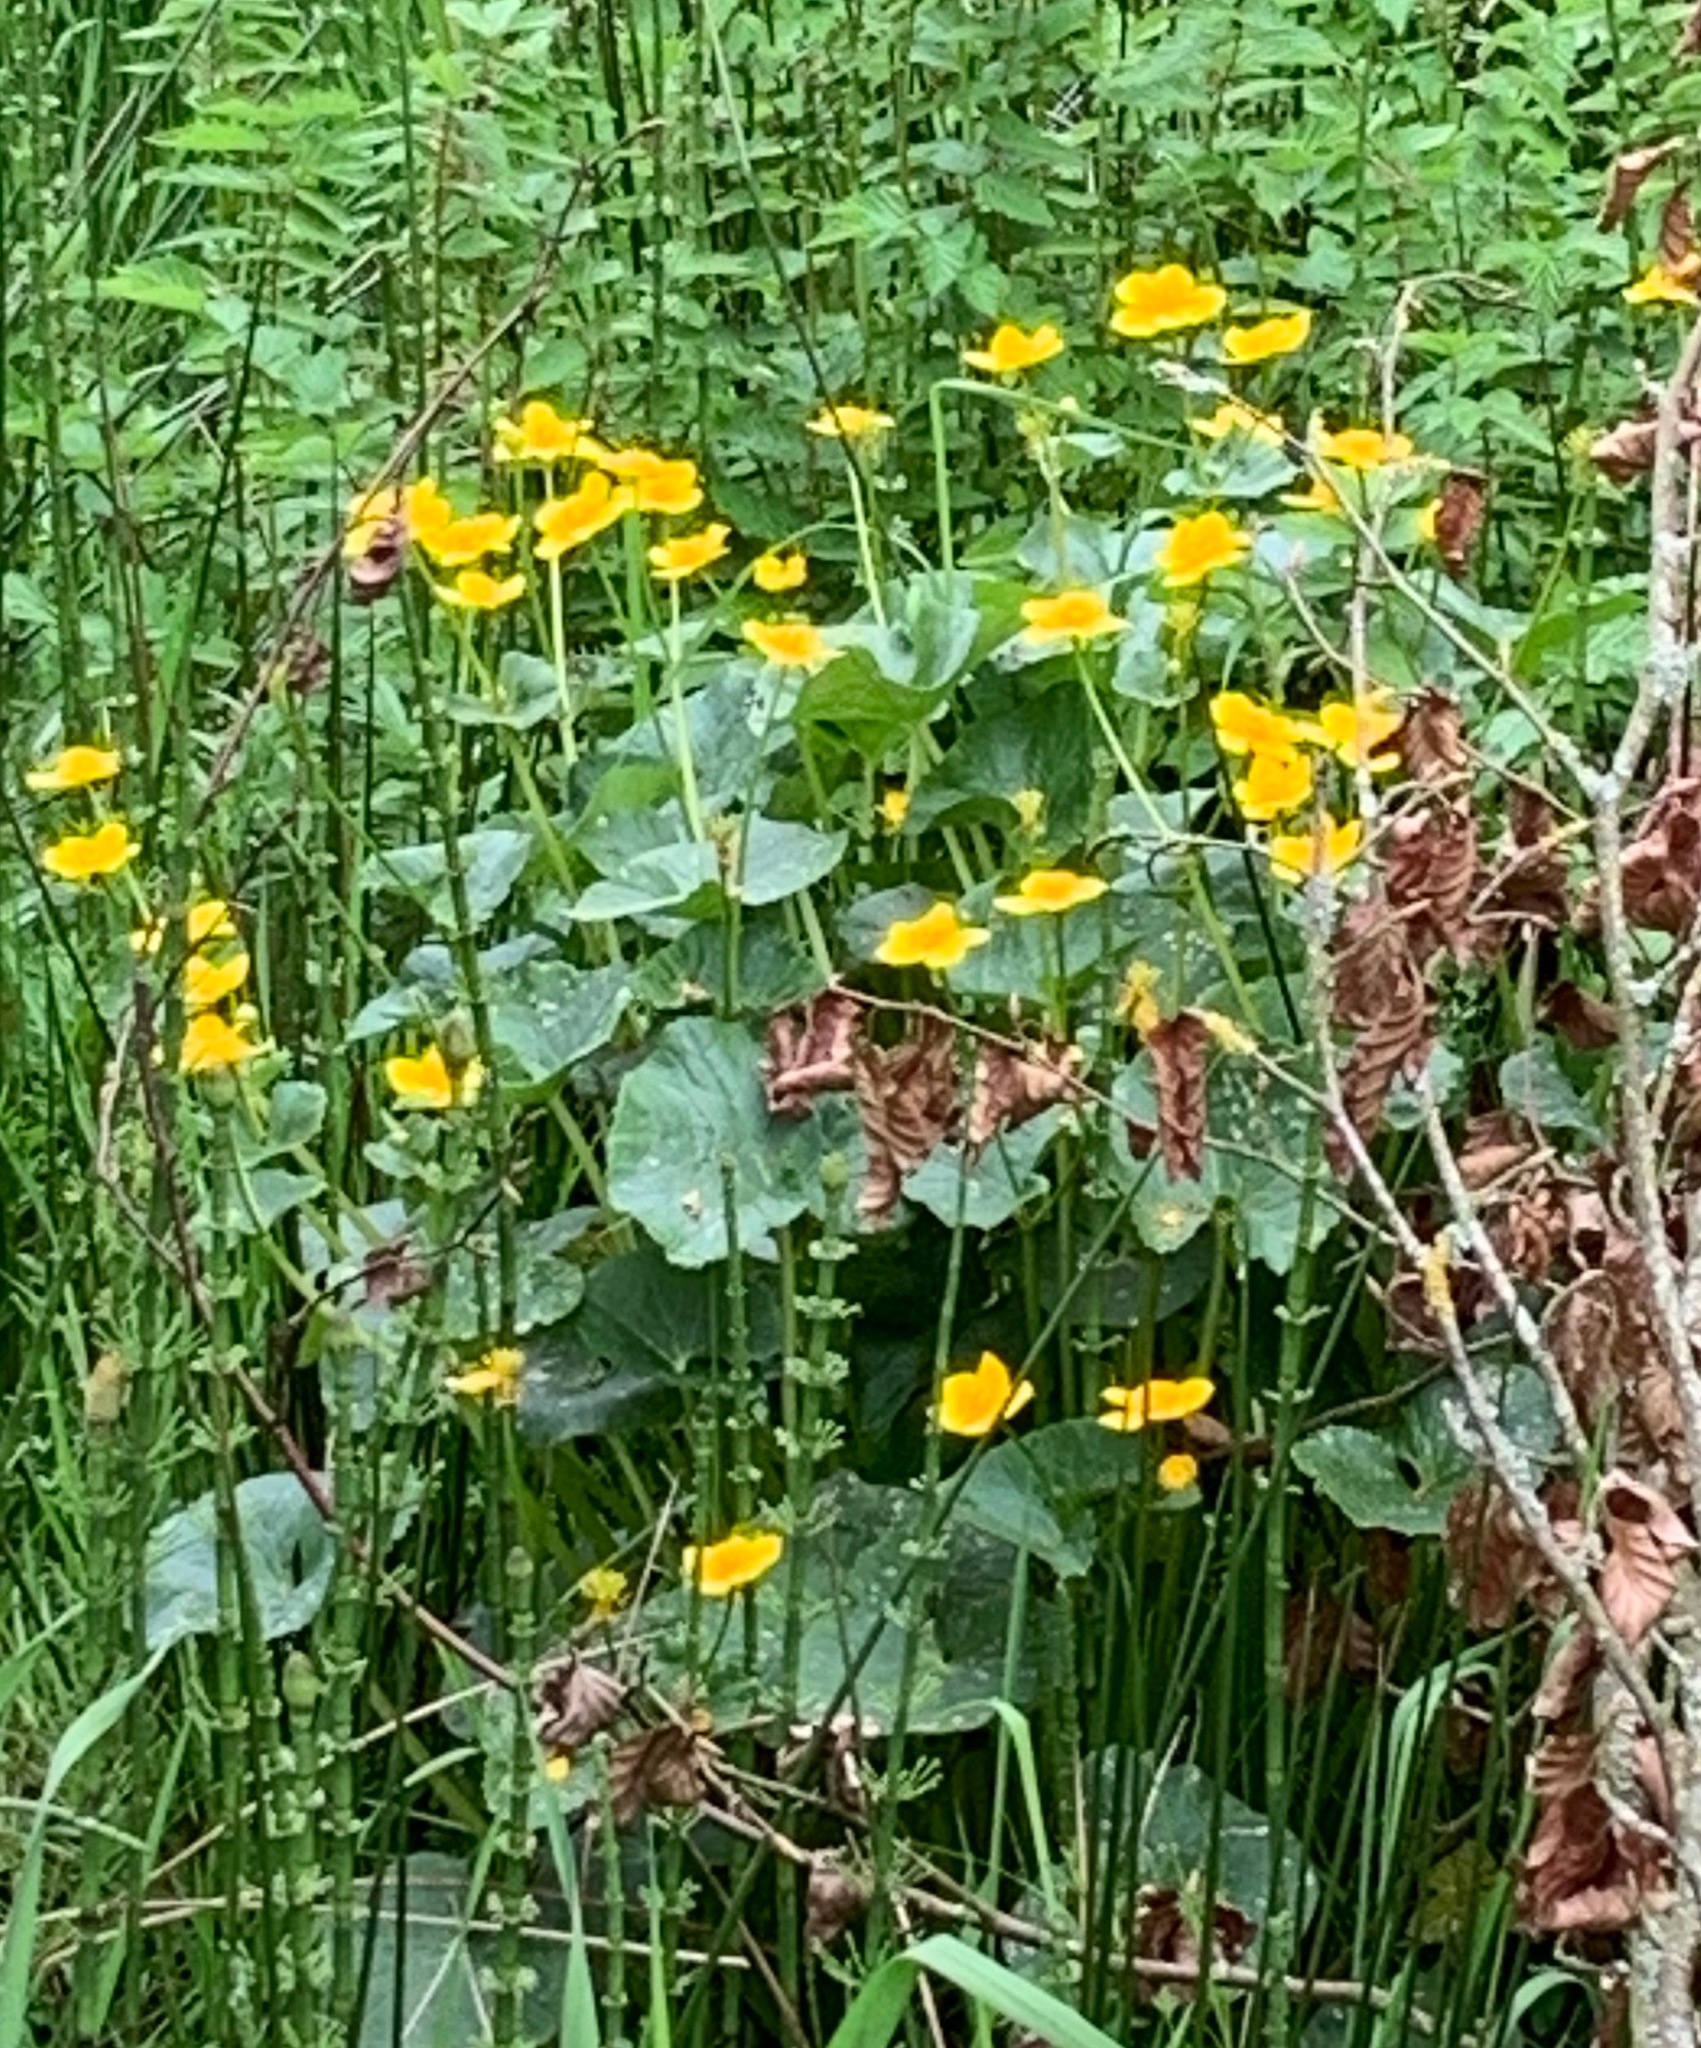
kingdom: Plantae
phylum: Tracheophyta
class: Magnoliopsida
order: Ranunculales
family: Ranunculaceae
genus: Caltha
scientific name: Caltha palustris
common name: Marsh marigold
